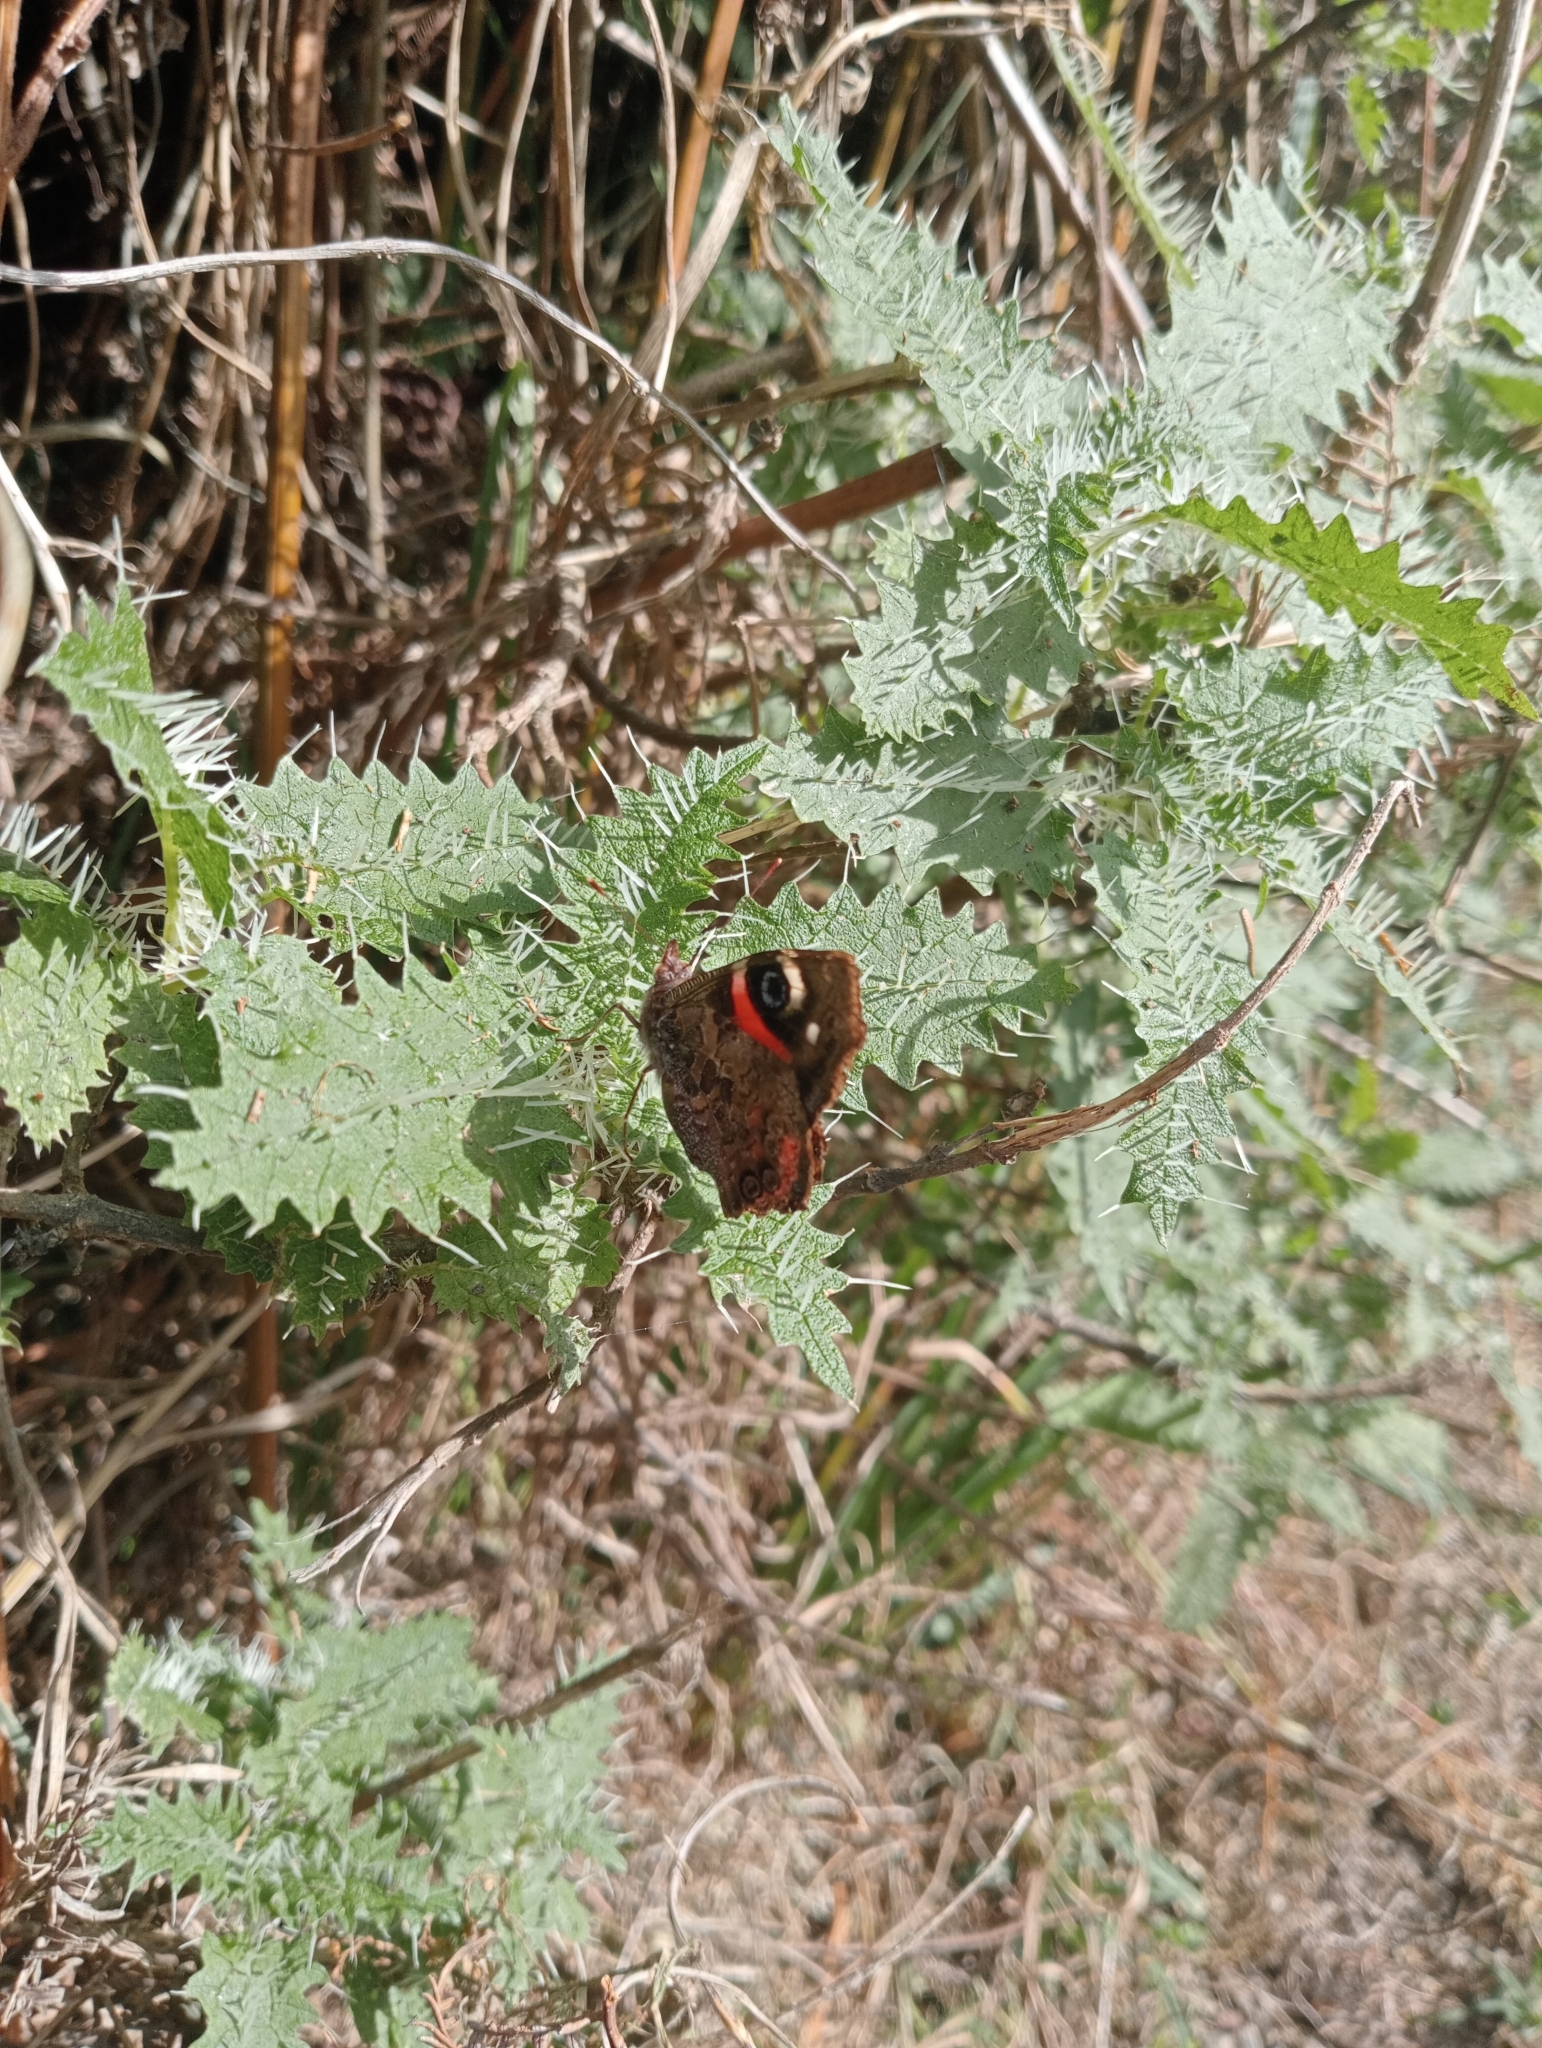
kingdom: Animalia
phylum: Arthropoda
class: Insecta
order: Lepidoptera
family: Nymphalidae
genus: Vanessa
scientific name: Vanessa gonerilla
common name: New zealand red admiral
